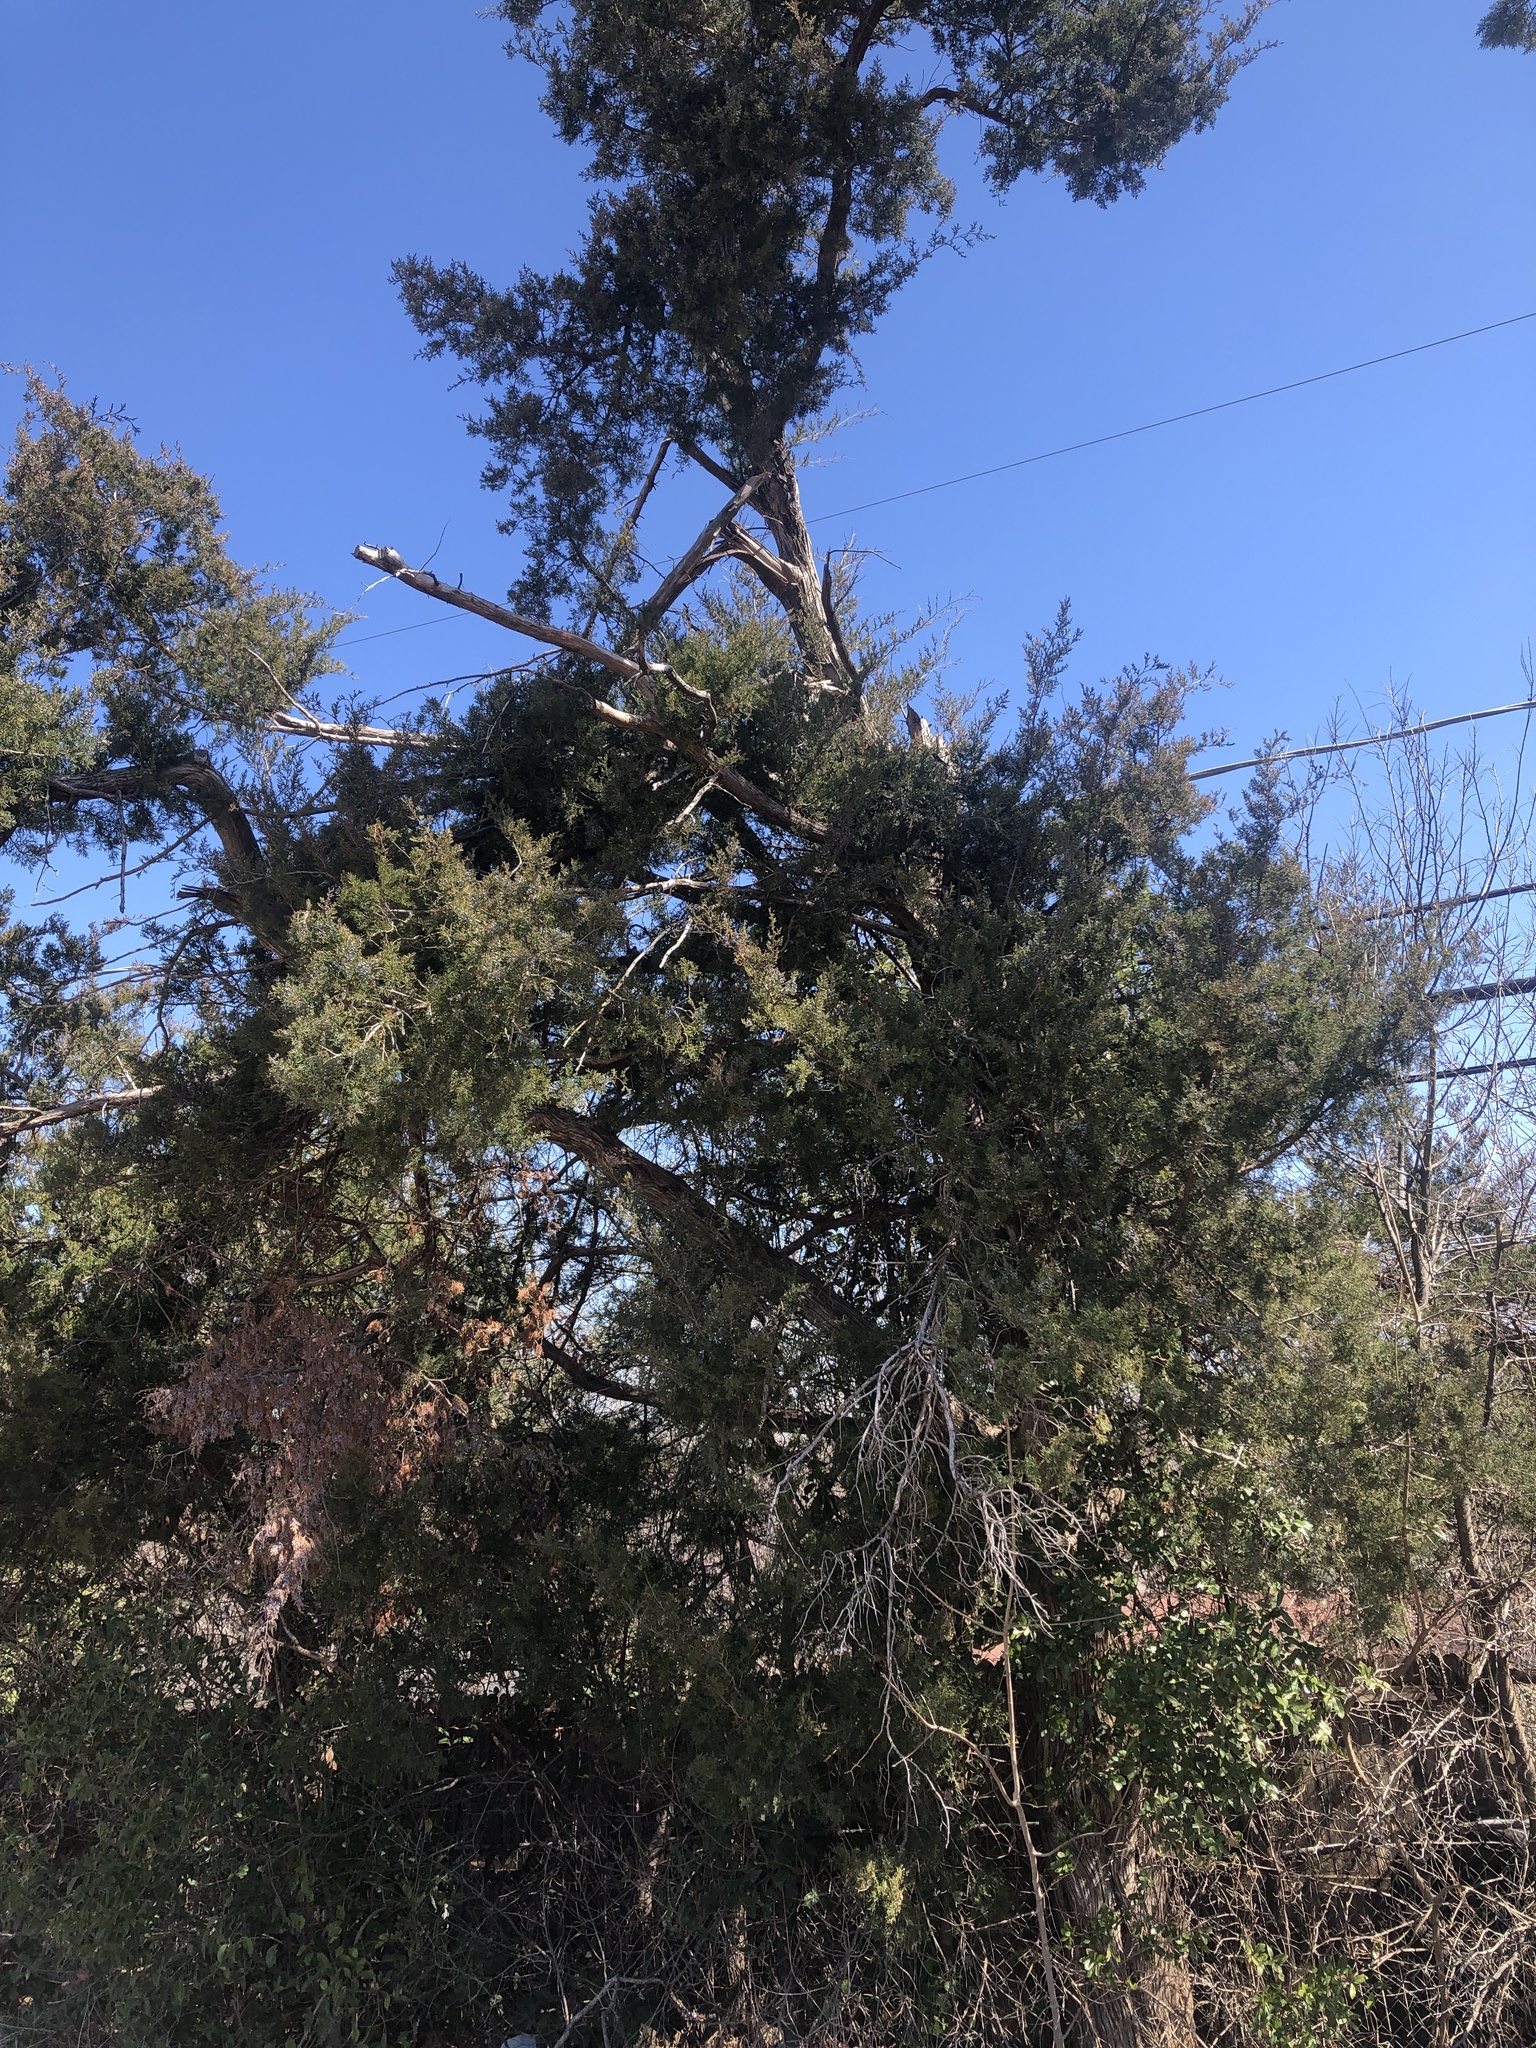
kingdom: Plantae
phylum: Tracheophyta
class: Pinopsida
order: Pinales
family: Cupressaceae
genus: Juniperus
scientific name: Juniperus virginiana
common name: Red juniper
